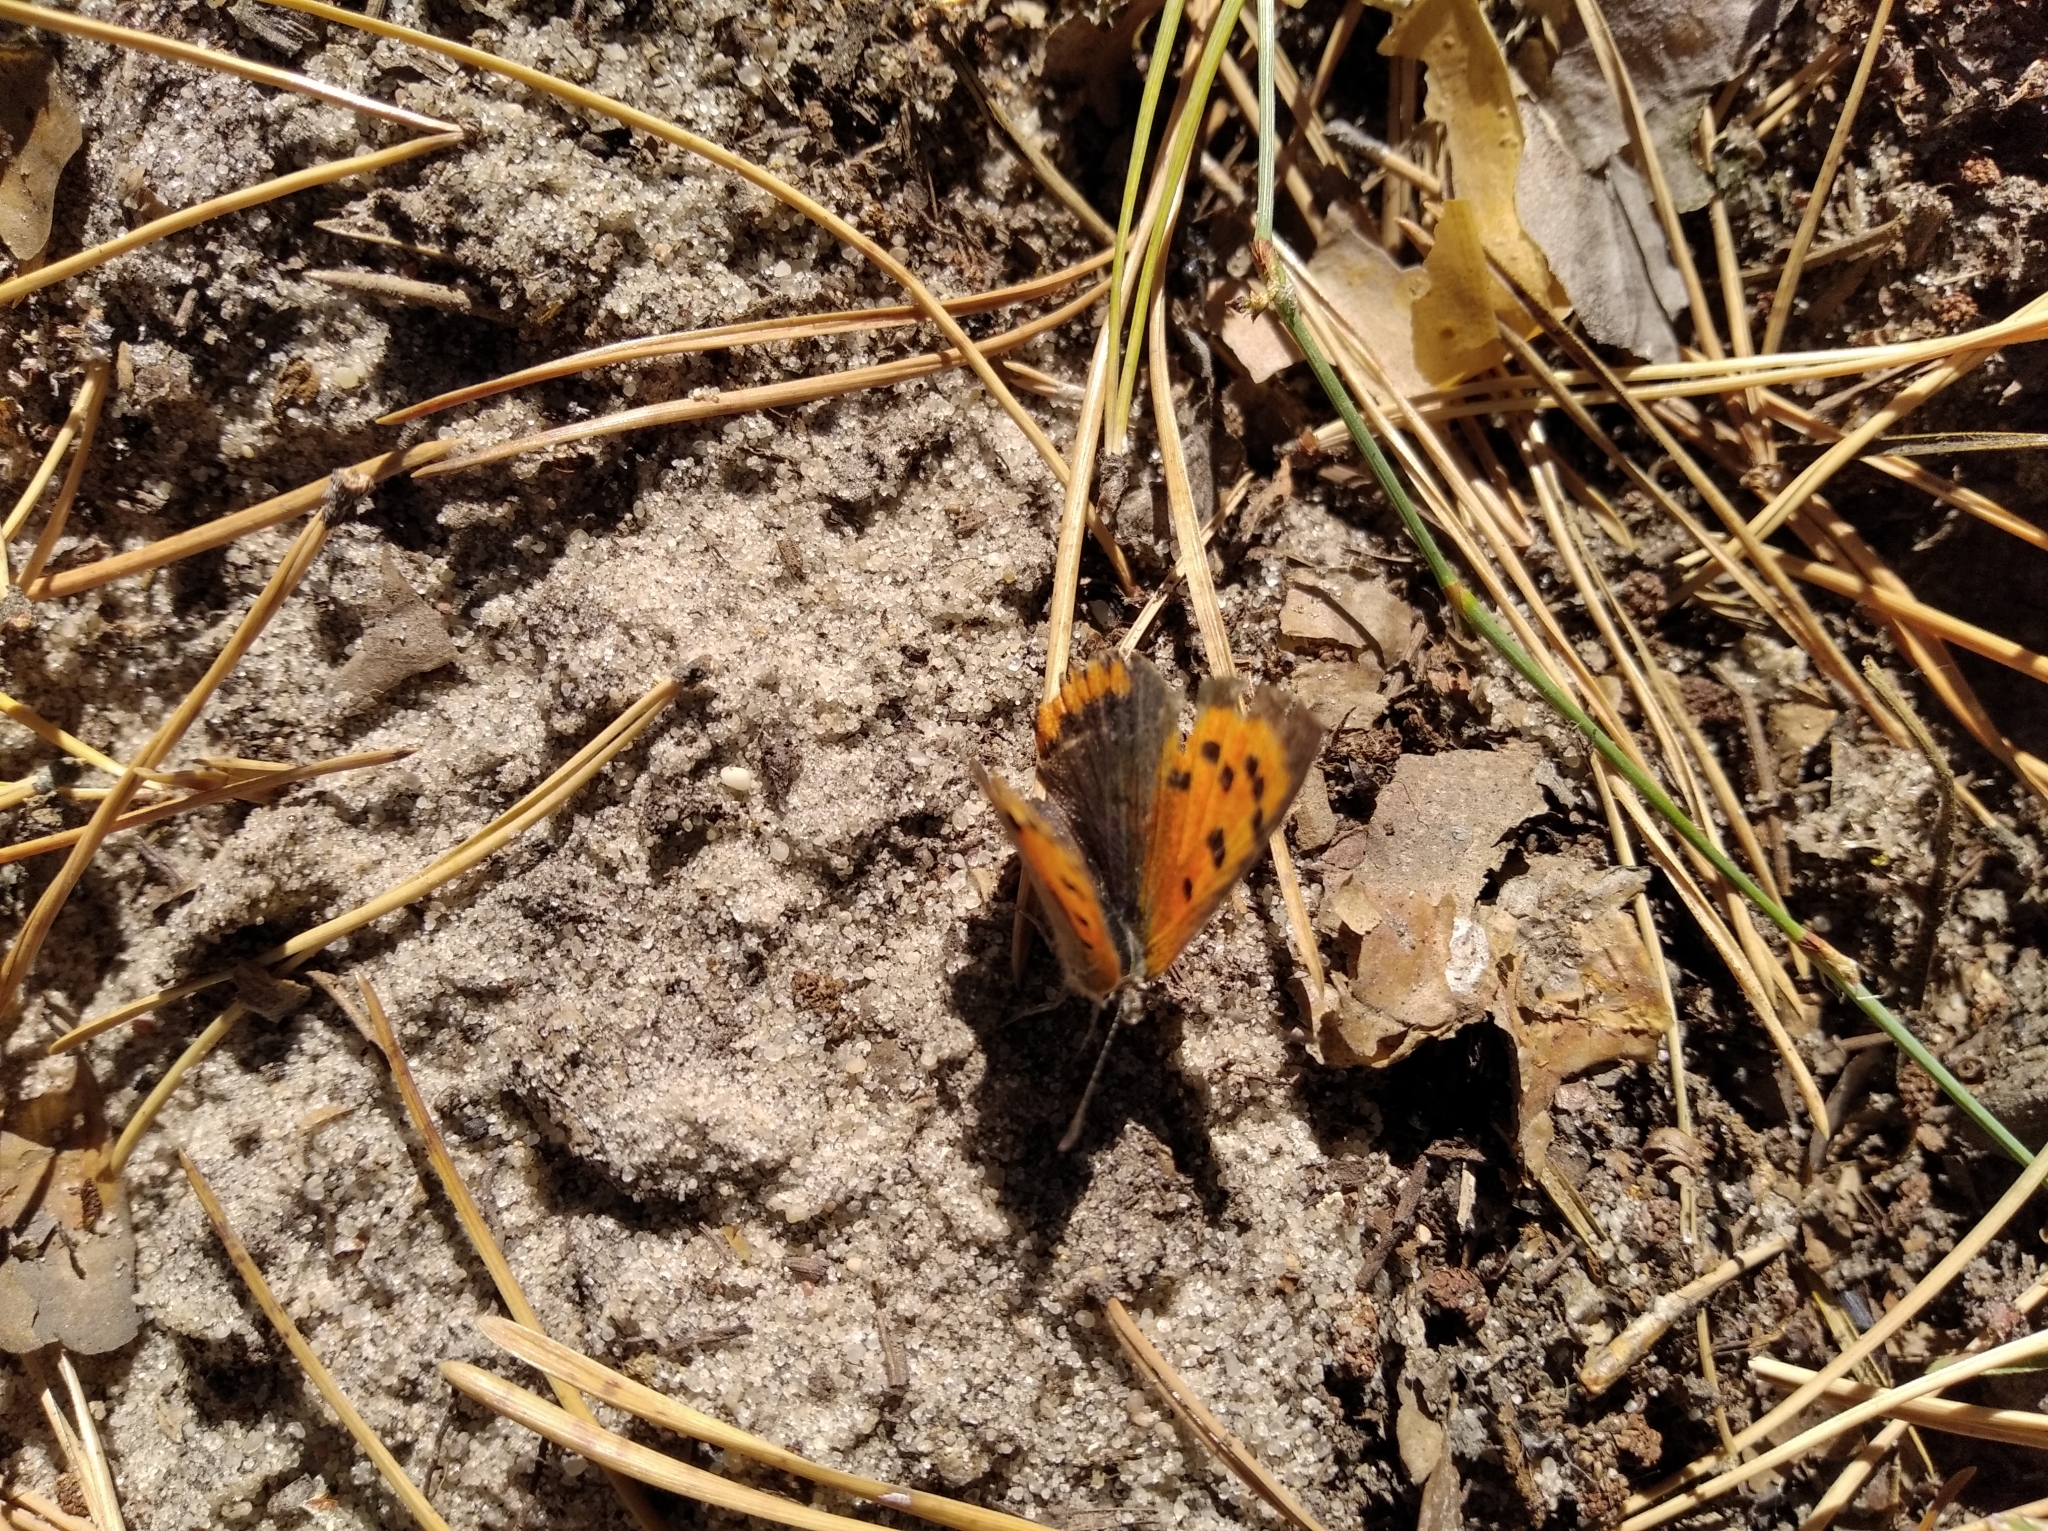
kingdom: Animalia
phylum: Arthropoda
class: Insecta
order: Lepidoptera
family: Lycaenidae
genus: Lycaena
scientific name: Lycaena phlaeas
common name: Small copper
